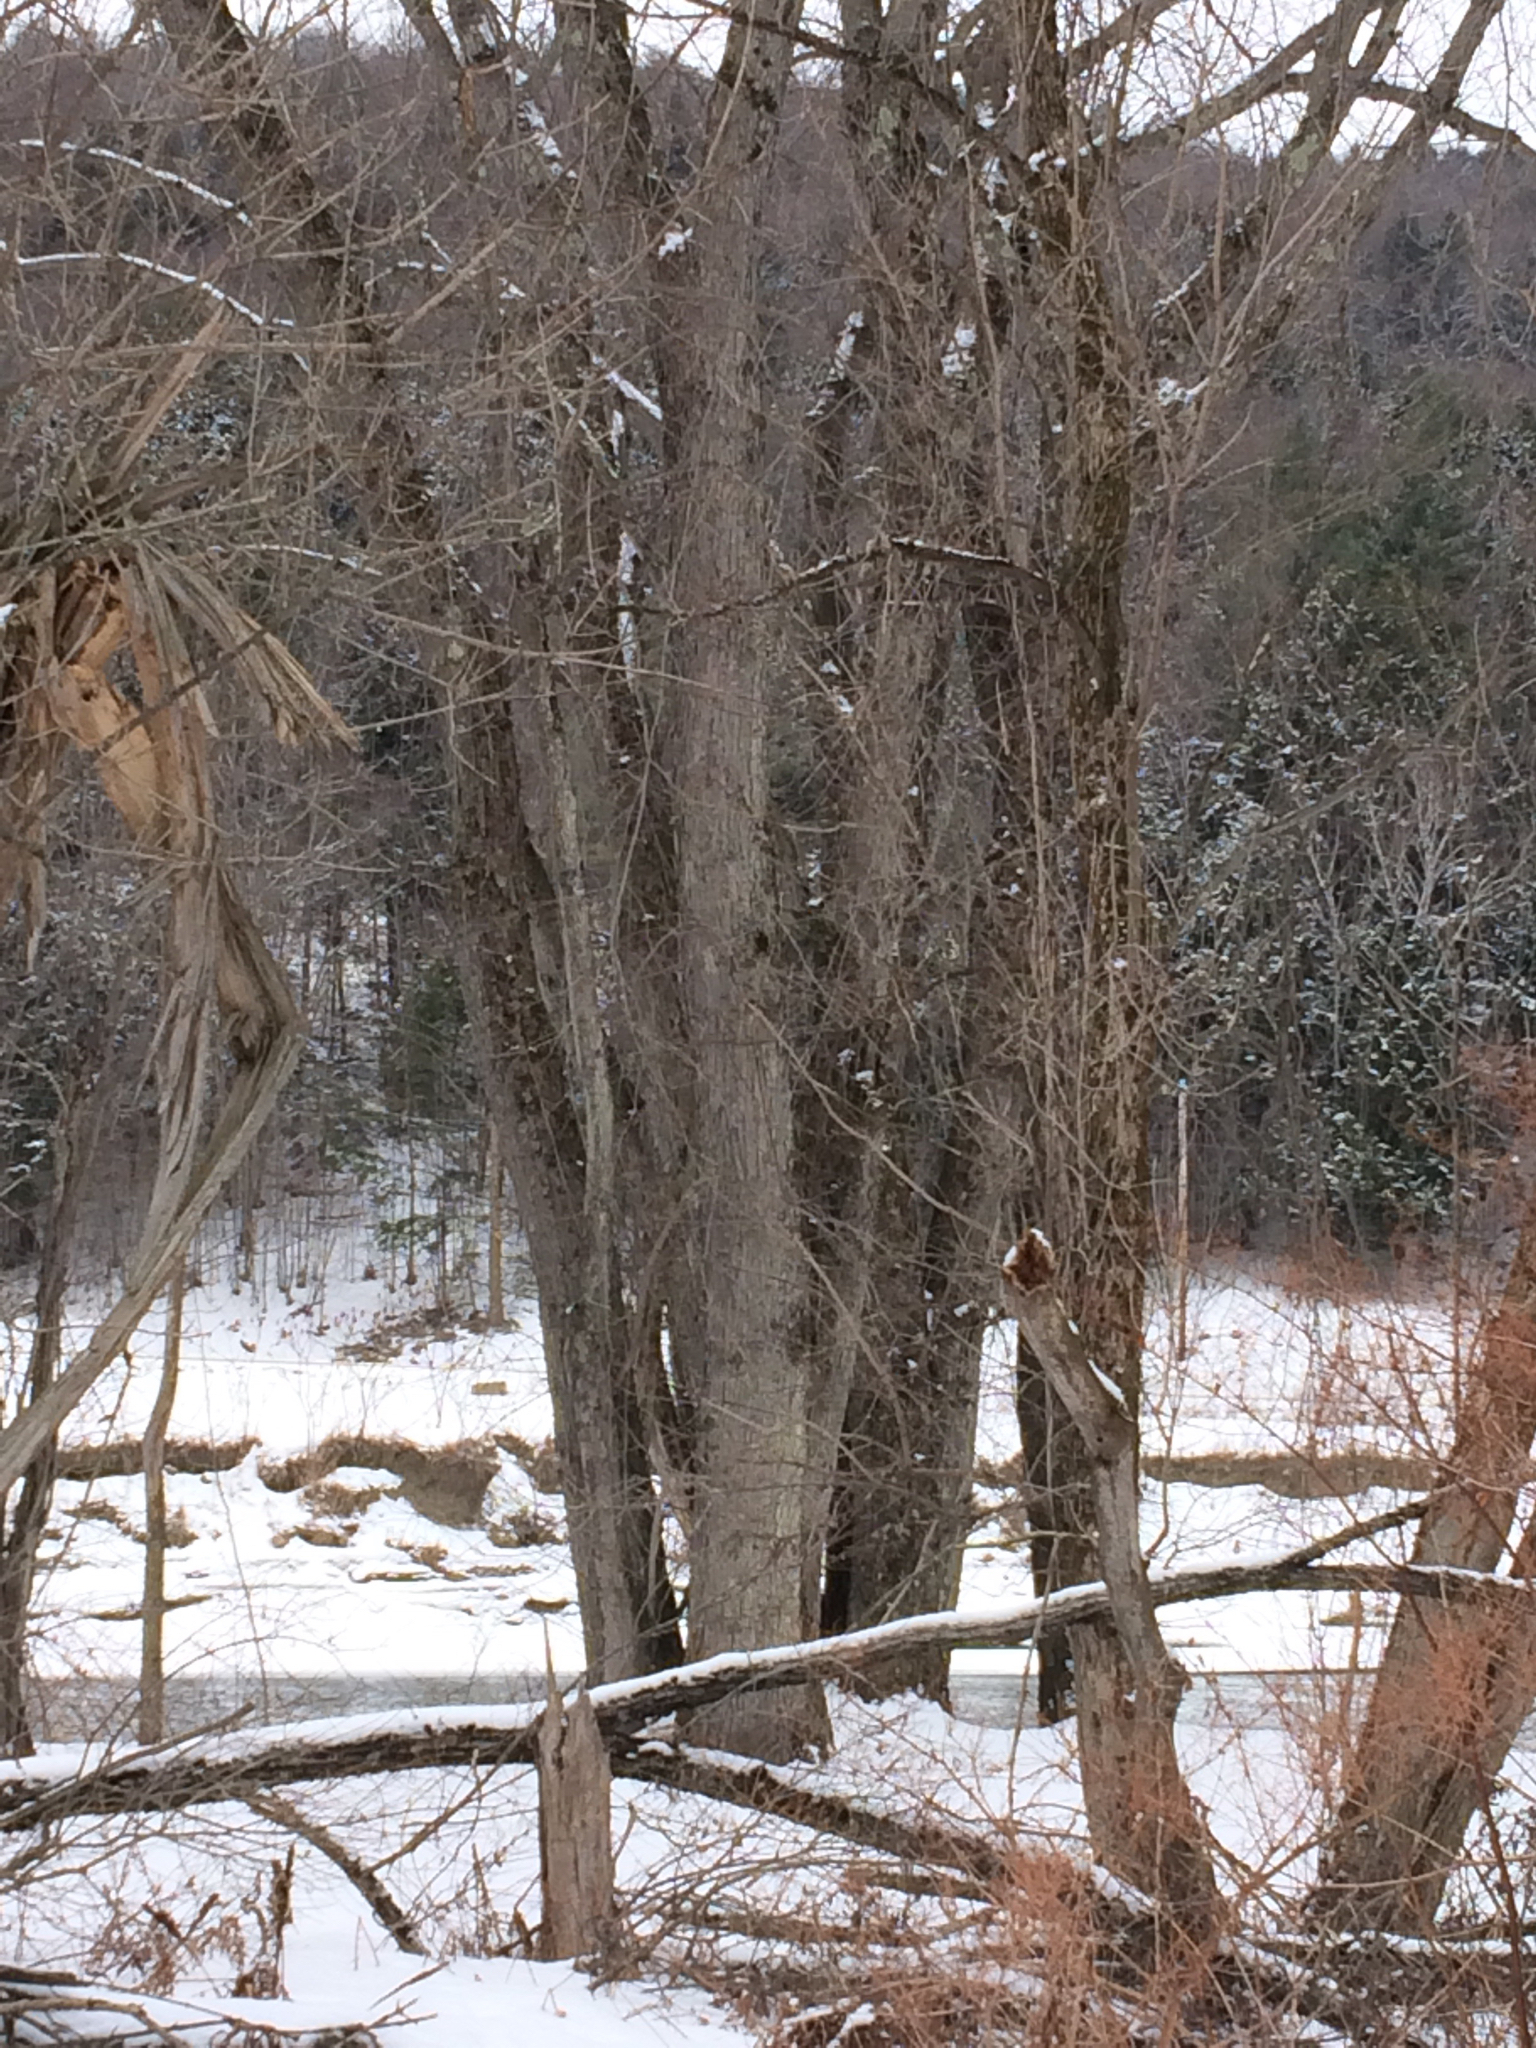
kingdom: Plantae
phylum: Tracheophyta
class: Magnoliopsida
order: Sapindales
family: Sapindaceae
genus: Acer
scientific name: Acer saccharinum
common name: Silver maple
